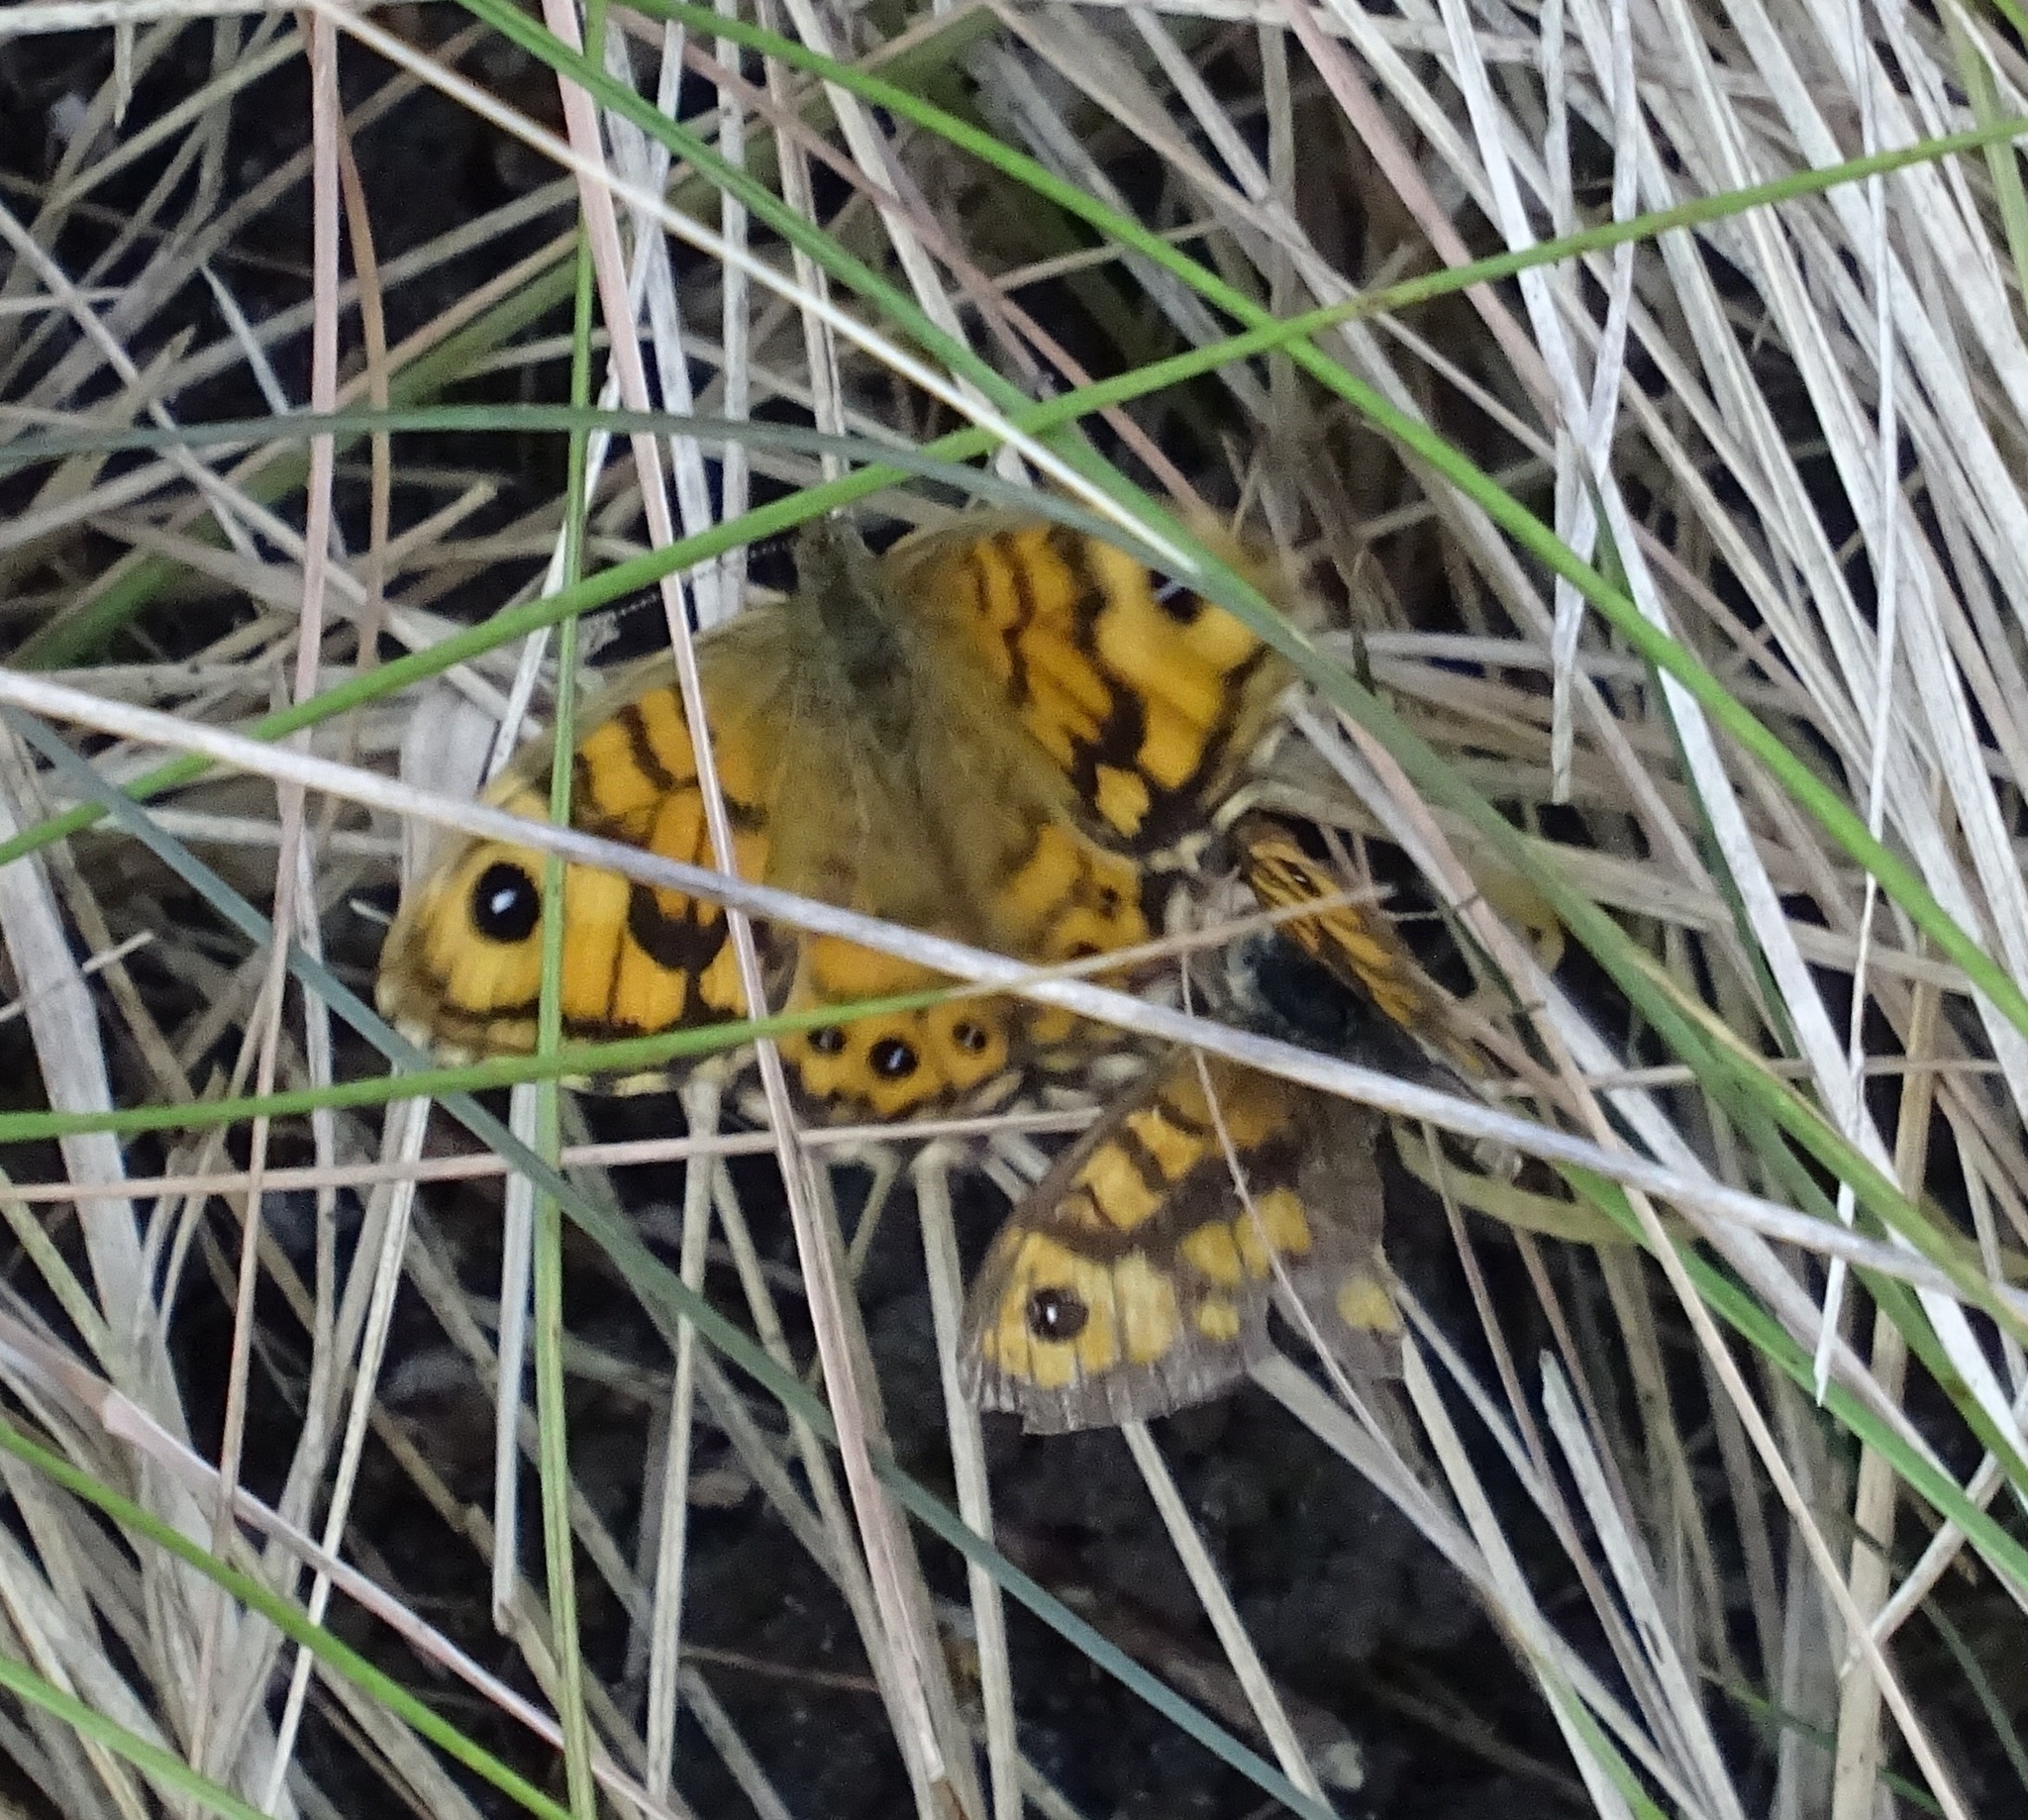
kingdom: Animalia
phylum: Arthropoda
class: Insecta
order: Lepidoptera
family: Nymphalidae
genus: Pararge
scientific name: Pararge Lasiommata megera
